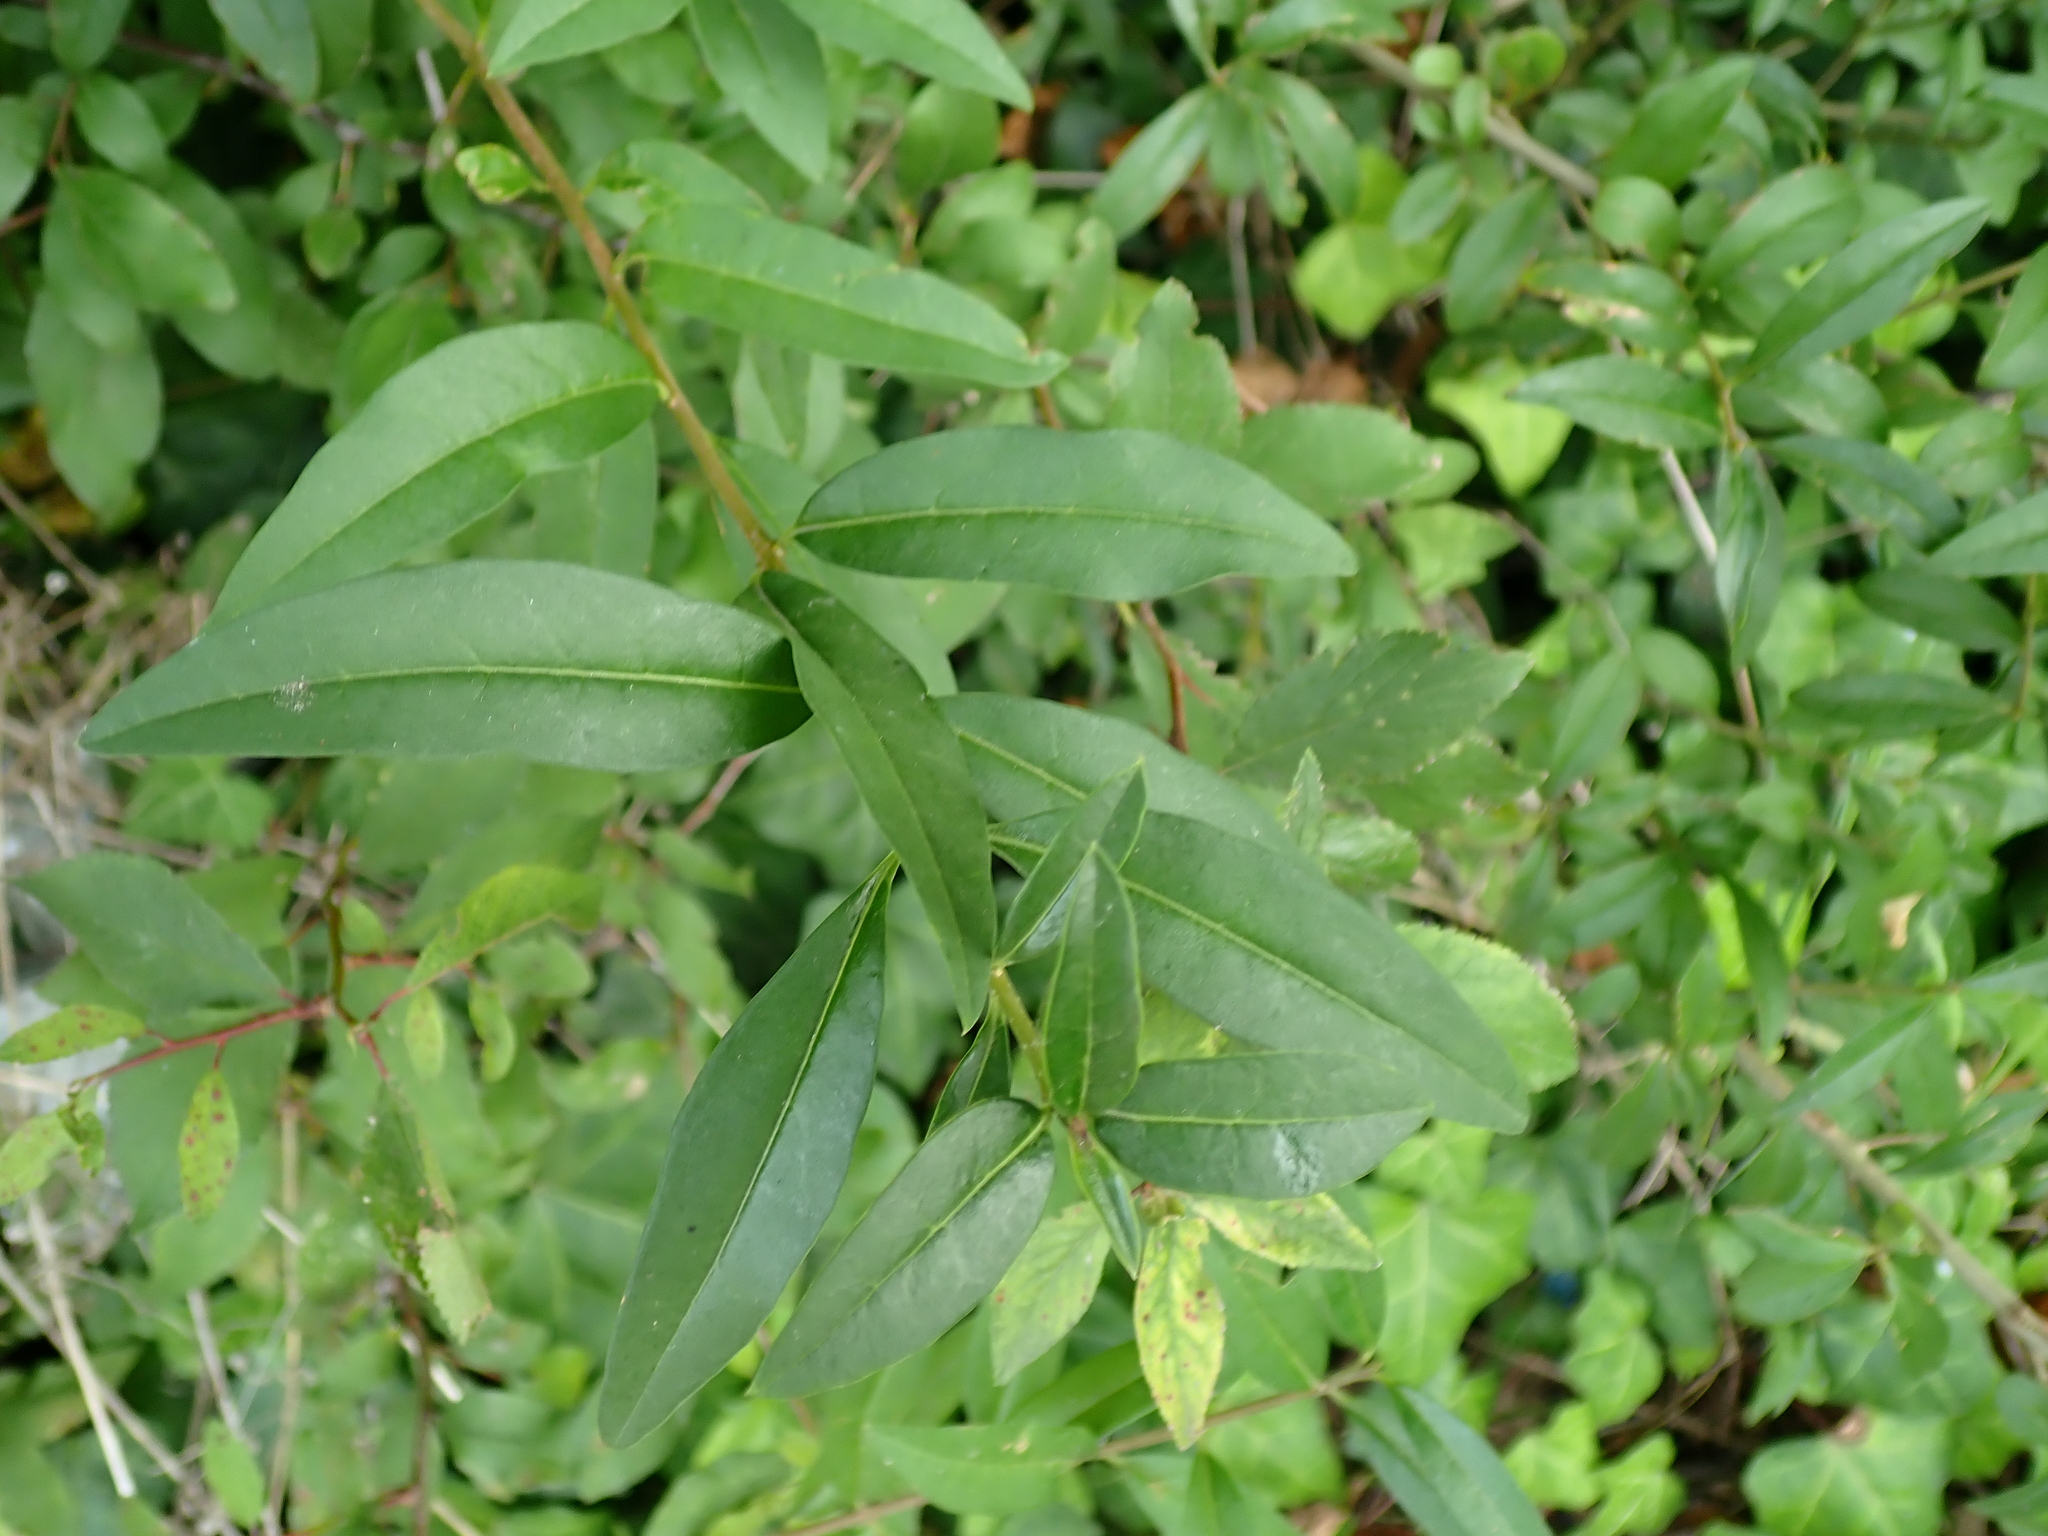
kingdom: Plantae
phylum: Tracheophyta
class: Magnoliopsida
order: Lamiales
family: Oleaceae
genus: Ligustrum
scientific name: Ligustrum vulgare
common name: Wild privet
